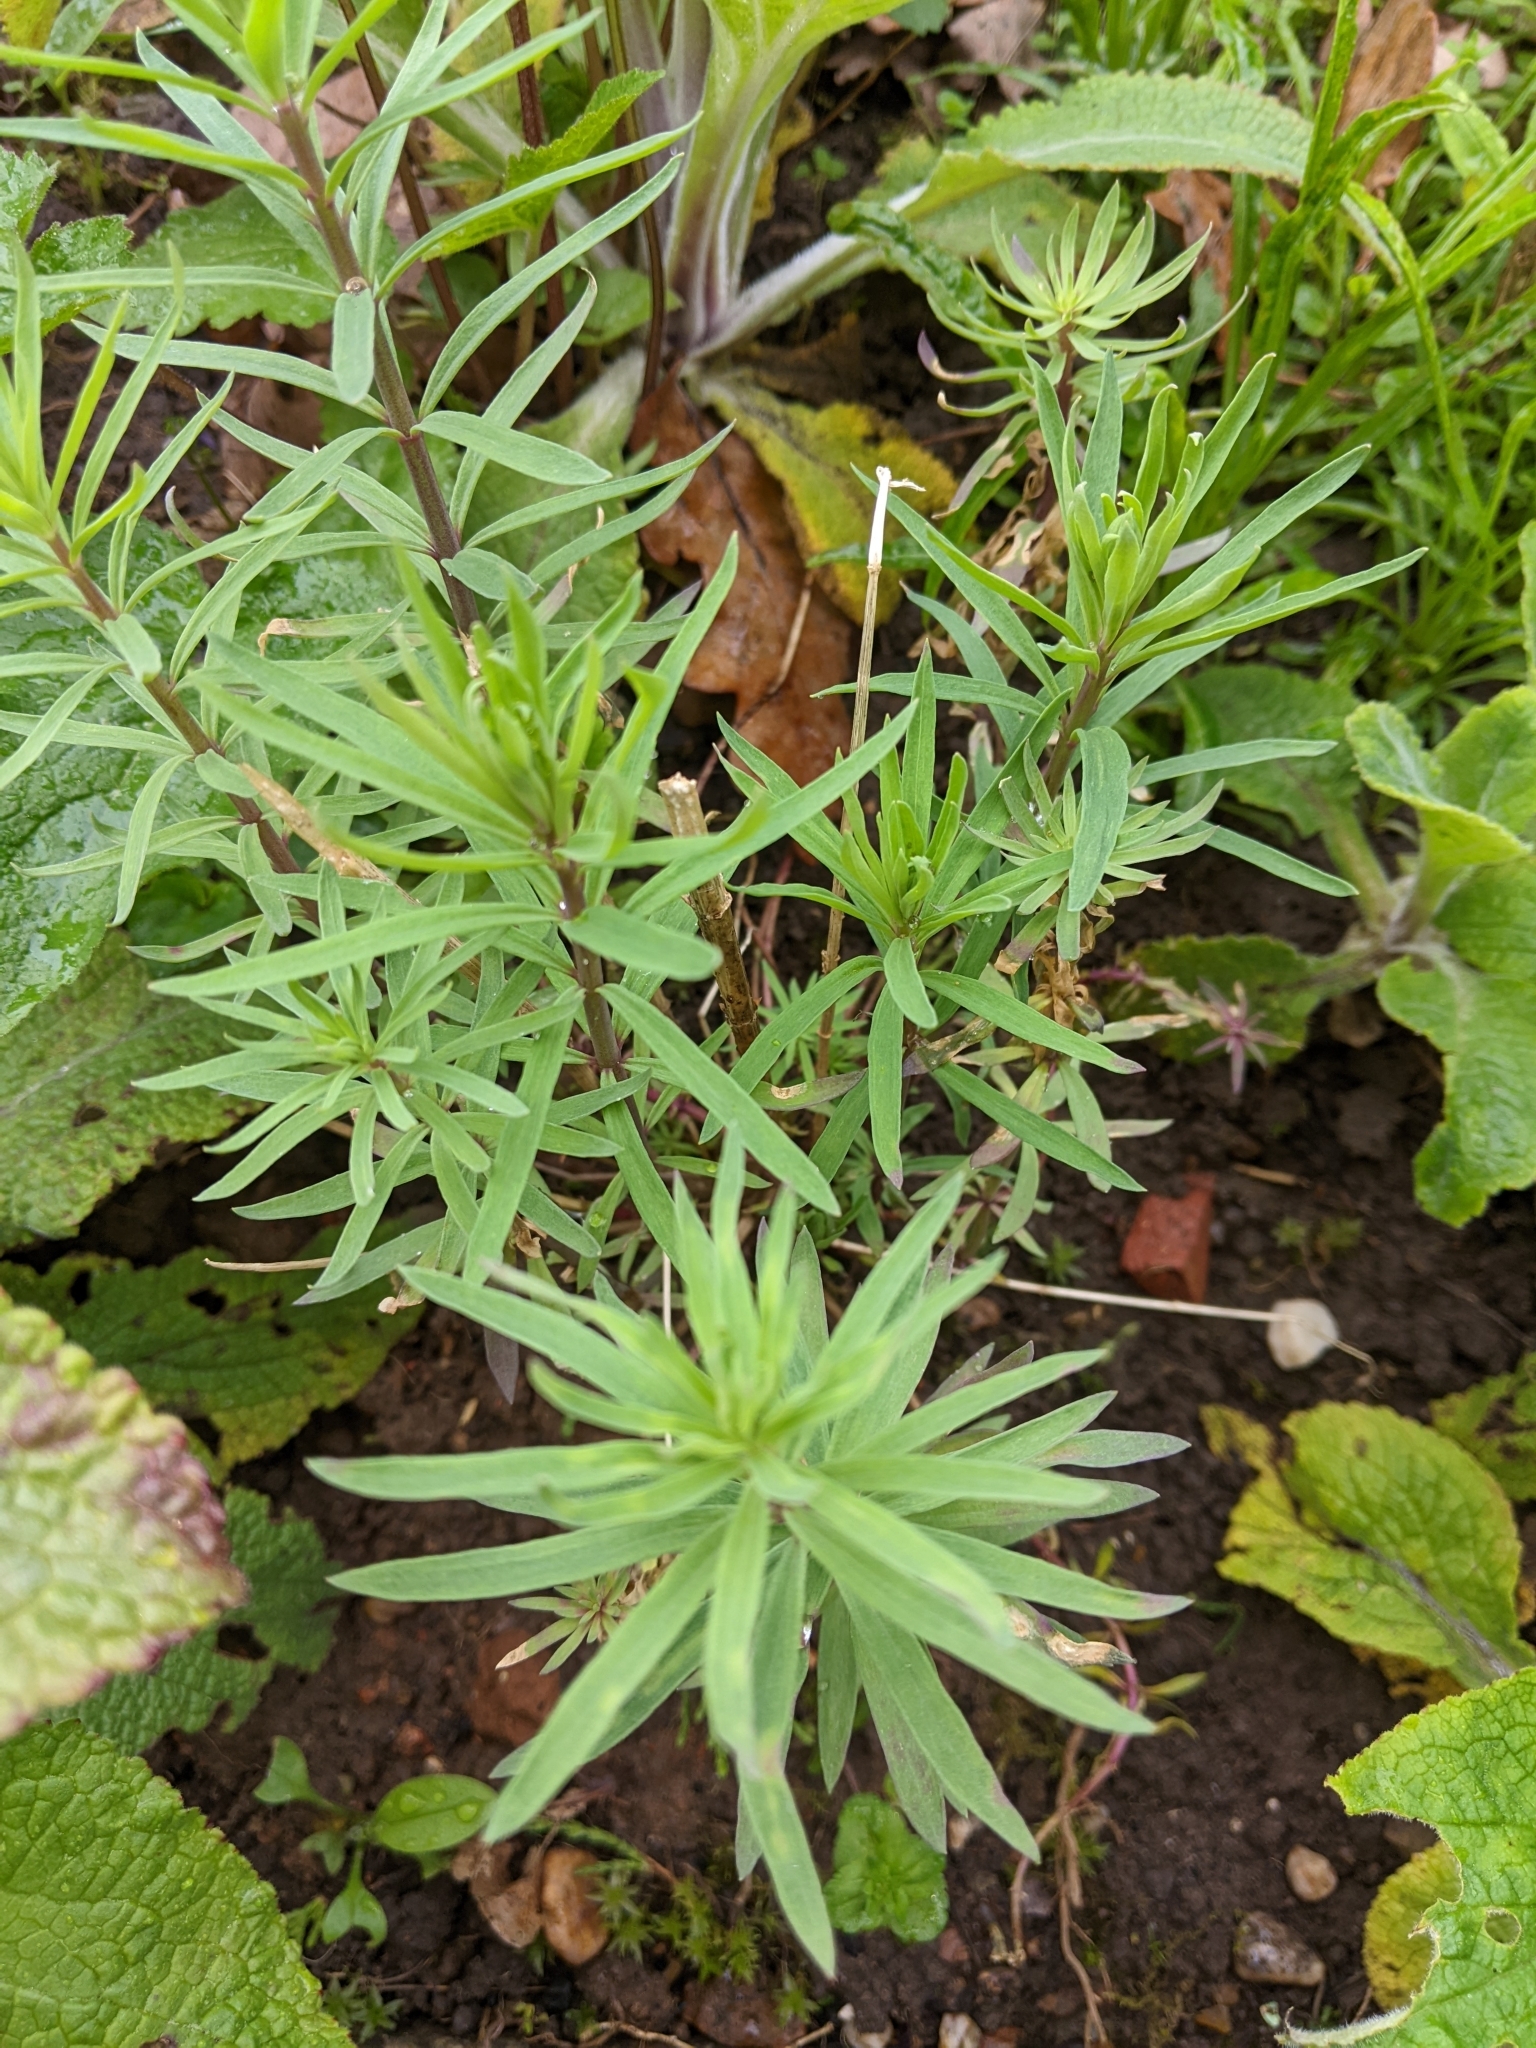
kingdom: Plantae
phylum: Tracheophyta
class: Magnoliopsida
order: Lamiales
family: Plantaginaceae
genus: Linaria
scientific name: Linaria purpurea
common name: Purple toadflax
